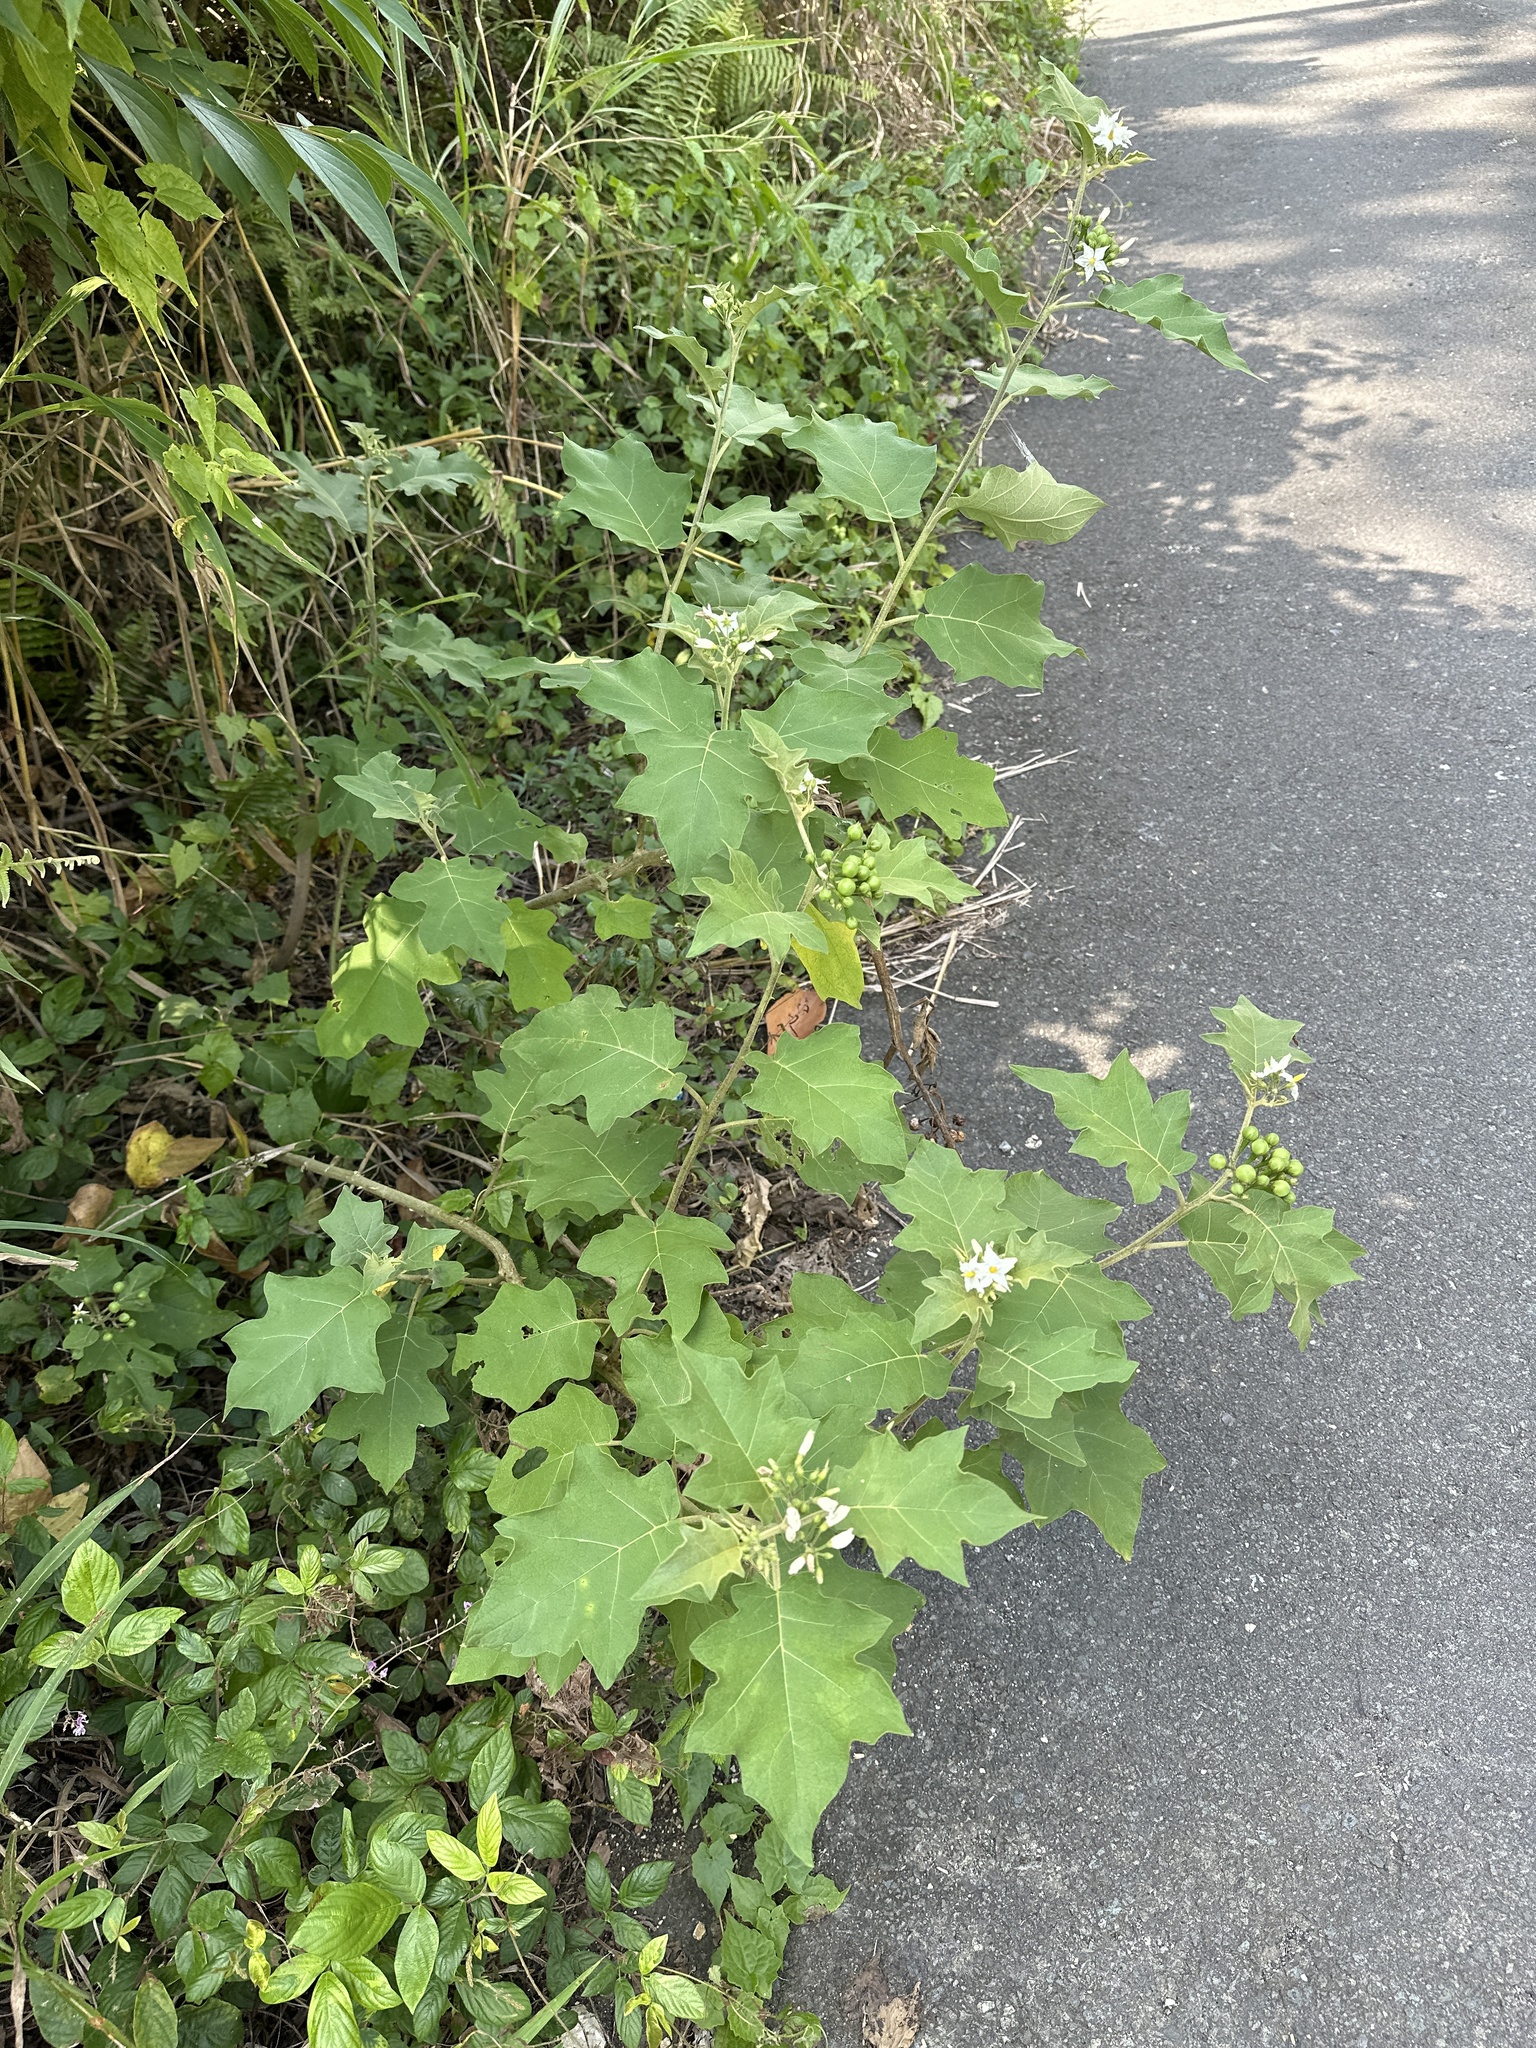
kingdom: Plantae
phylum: Tracheophyta
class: Magnoliopsida
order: Solanales
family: Solanaceae
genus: Solanum
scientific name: Solanum torvum
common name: Turkey berry
